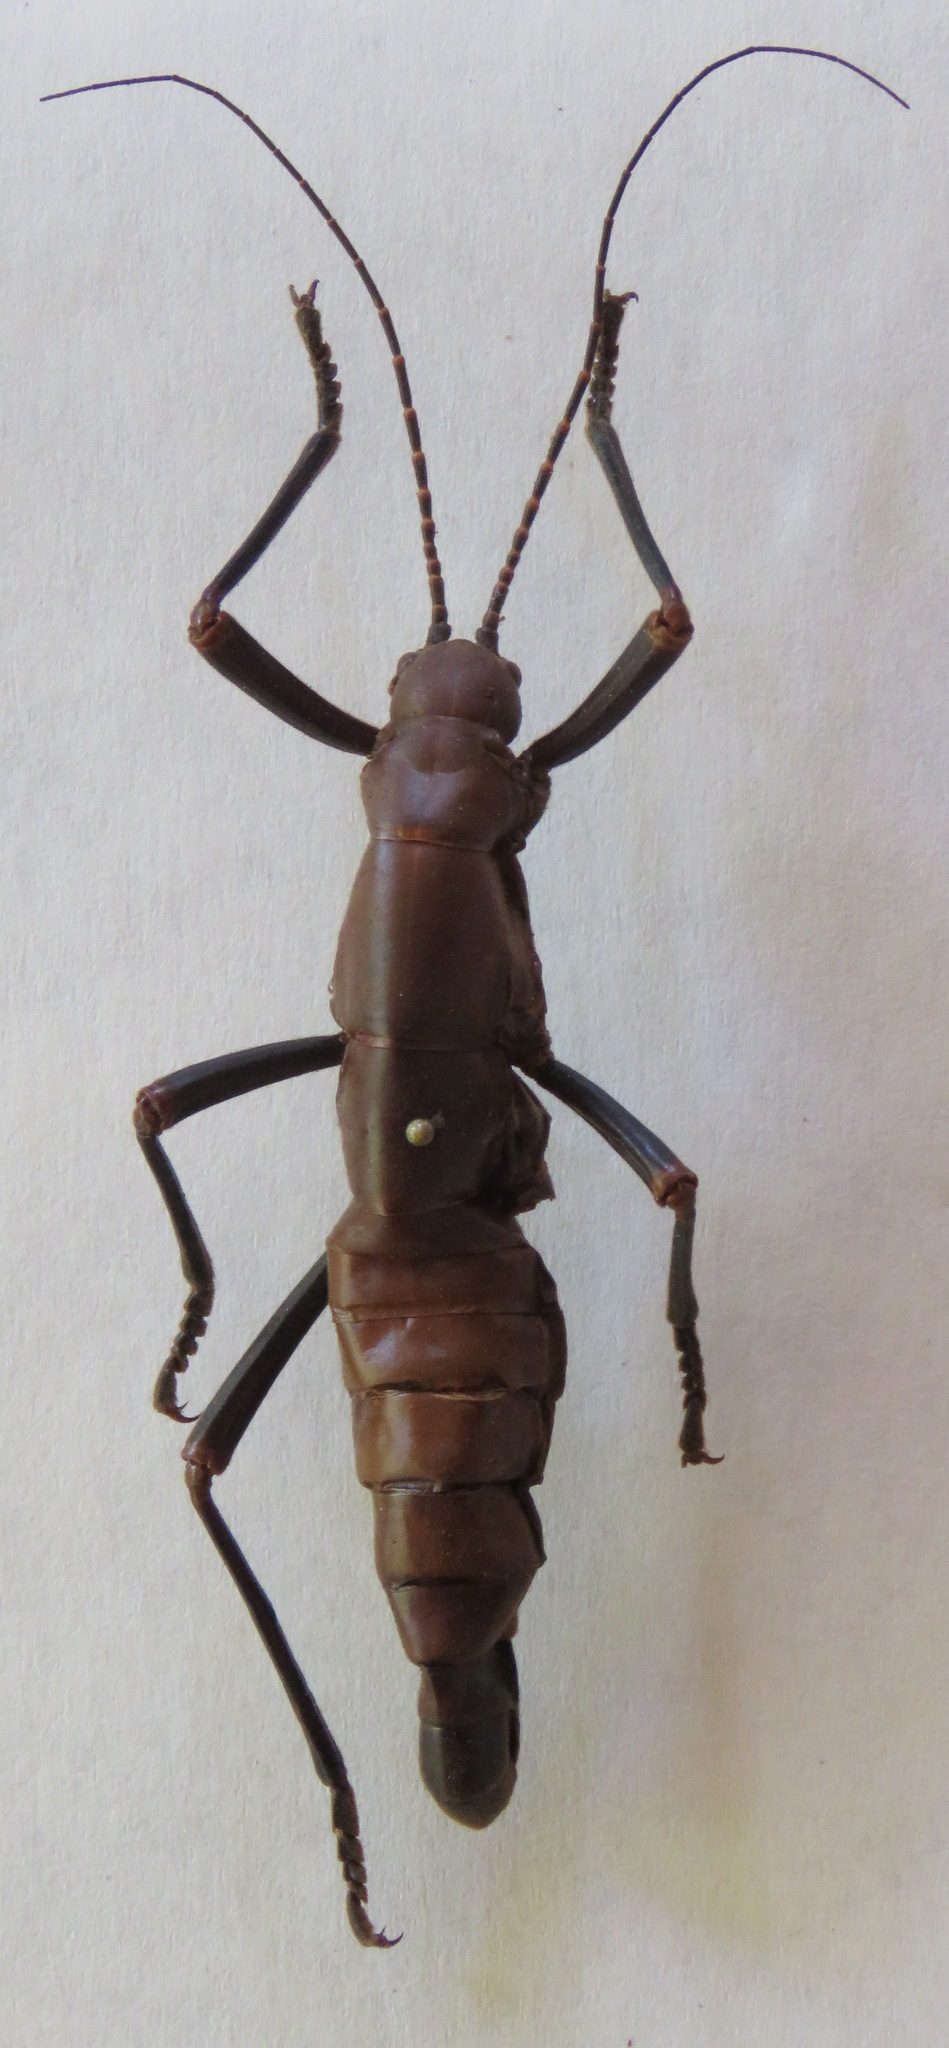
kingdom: Animalia
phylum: Arthropoda
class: Insecta
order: Phasmida
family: Pseudophasmatidae
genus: Autolyca
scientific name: Autolyca herculeana
